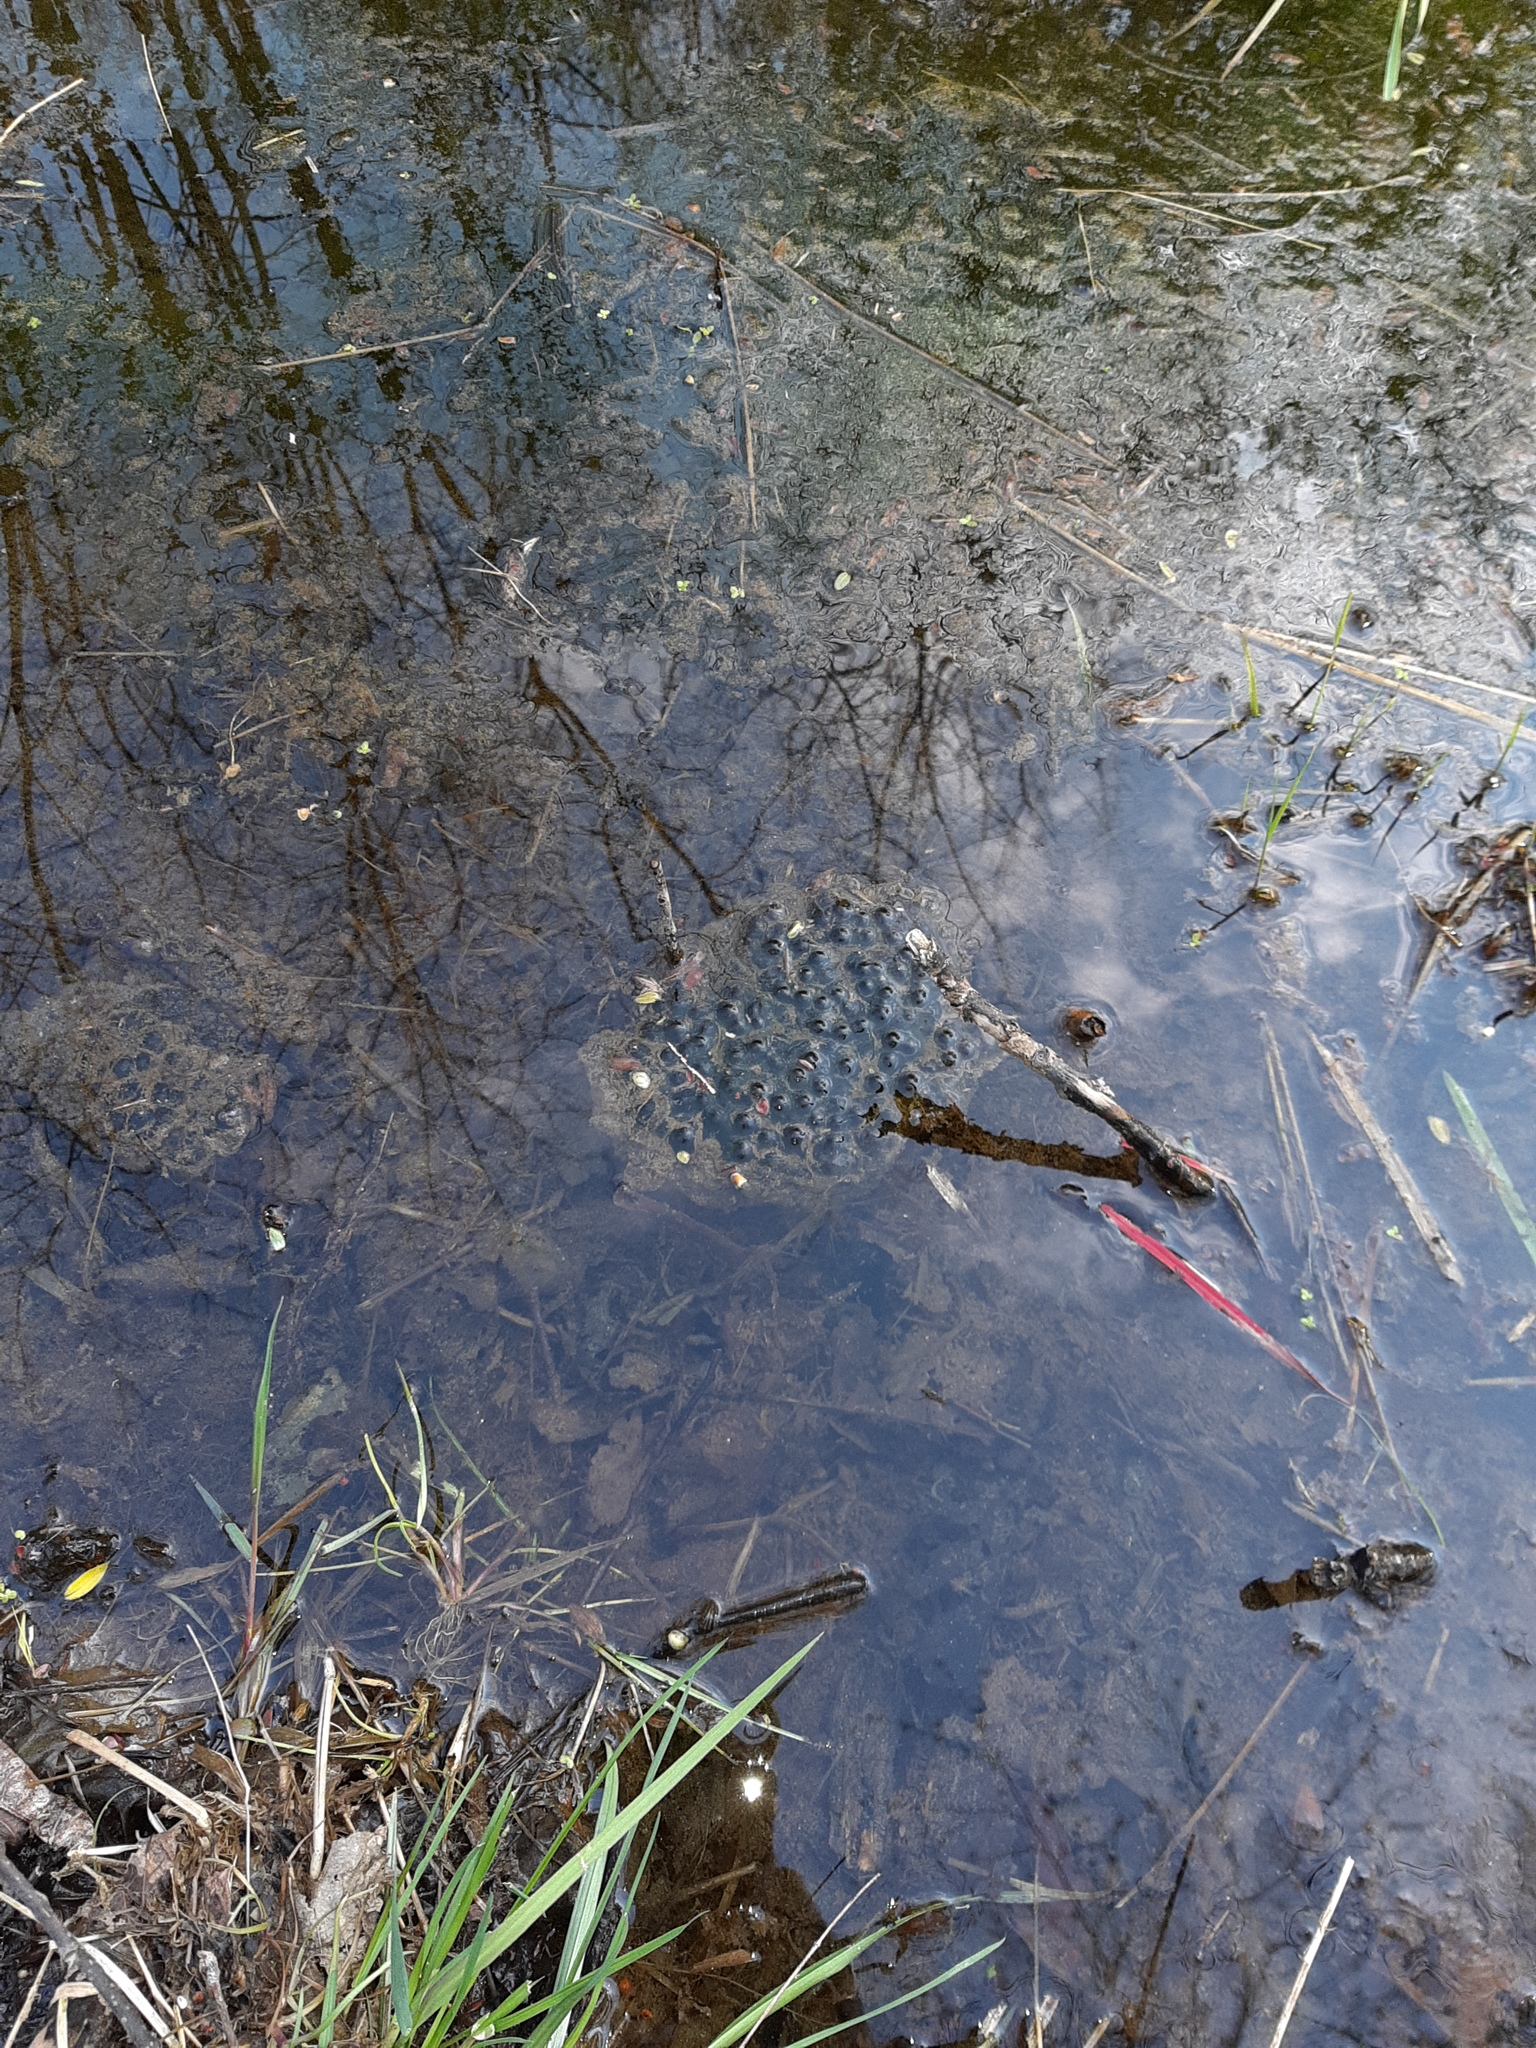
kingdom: Animalia
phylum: Chordata
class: Amphibia
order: Anura
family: Ranidae
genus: Rana
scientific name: Rana dalmatina
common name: Agile frog
